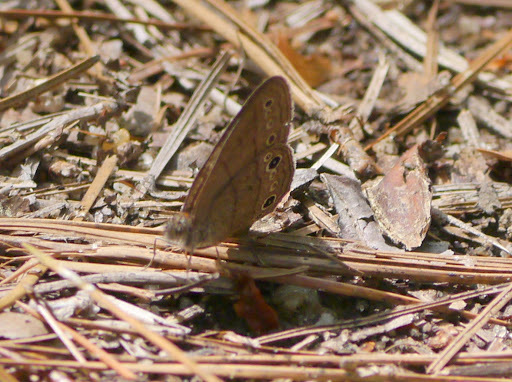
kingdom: Animalia
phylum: Arthropoda
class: Insecta
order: Lepidoptera
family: Nymphalidae
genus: Hermeuptychia
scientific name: Hermeuptychia hermes
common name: Hermes satyr
